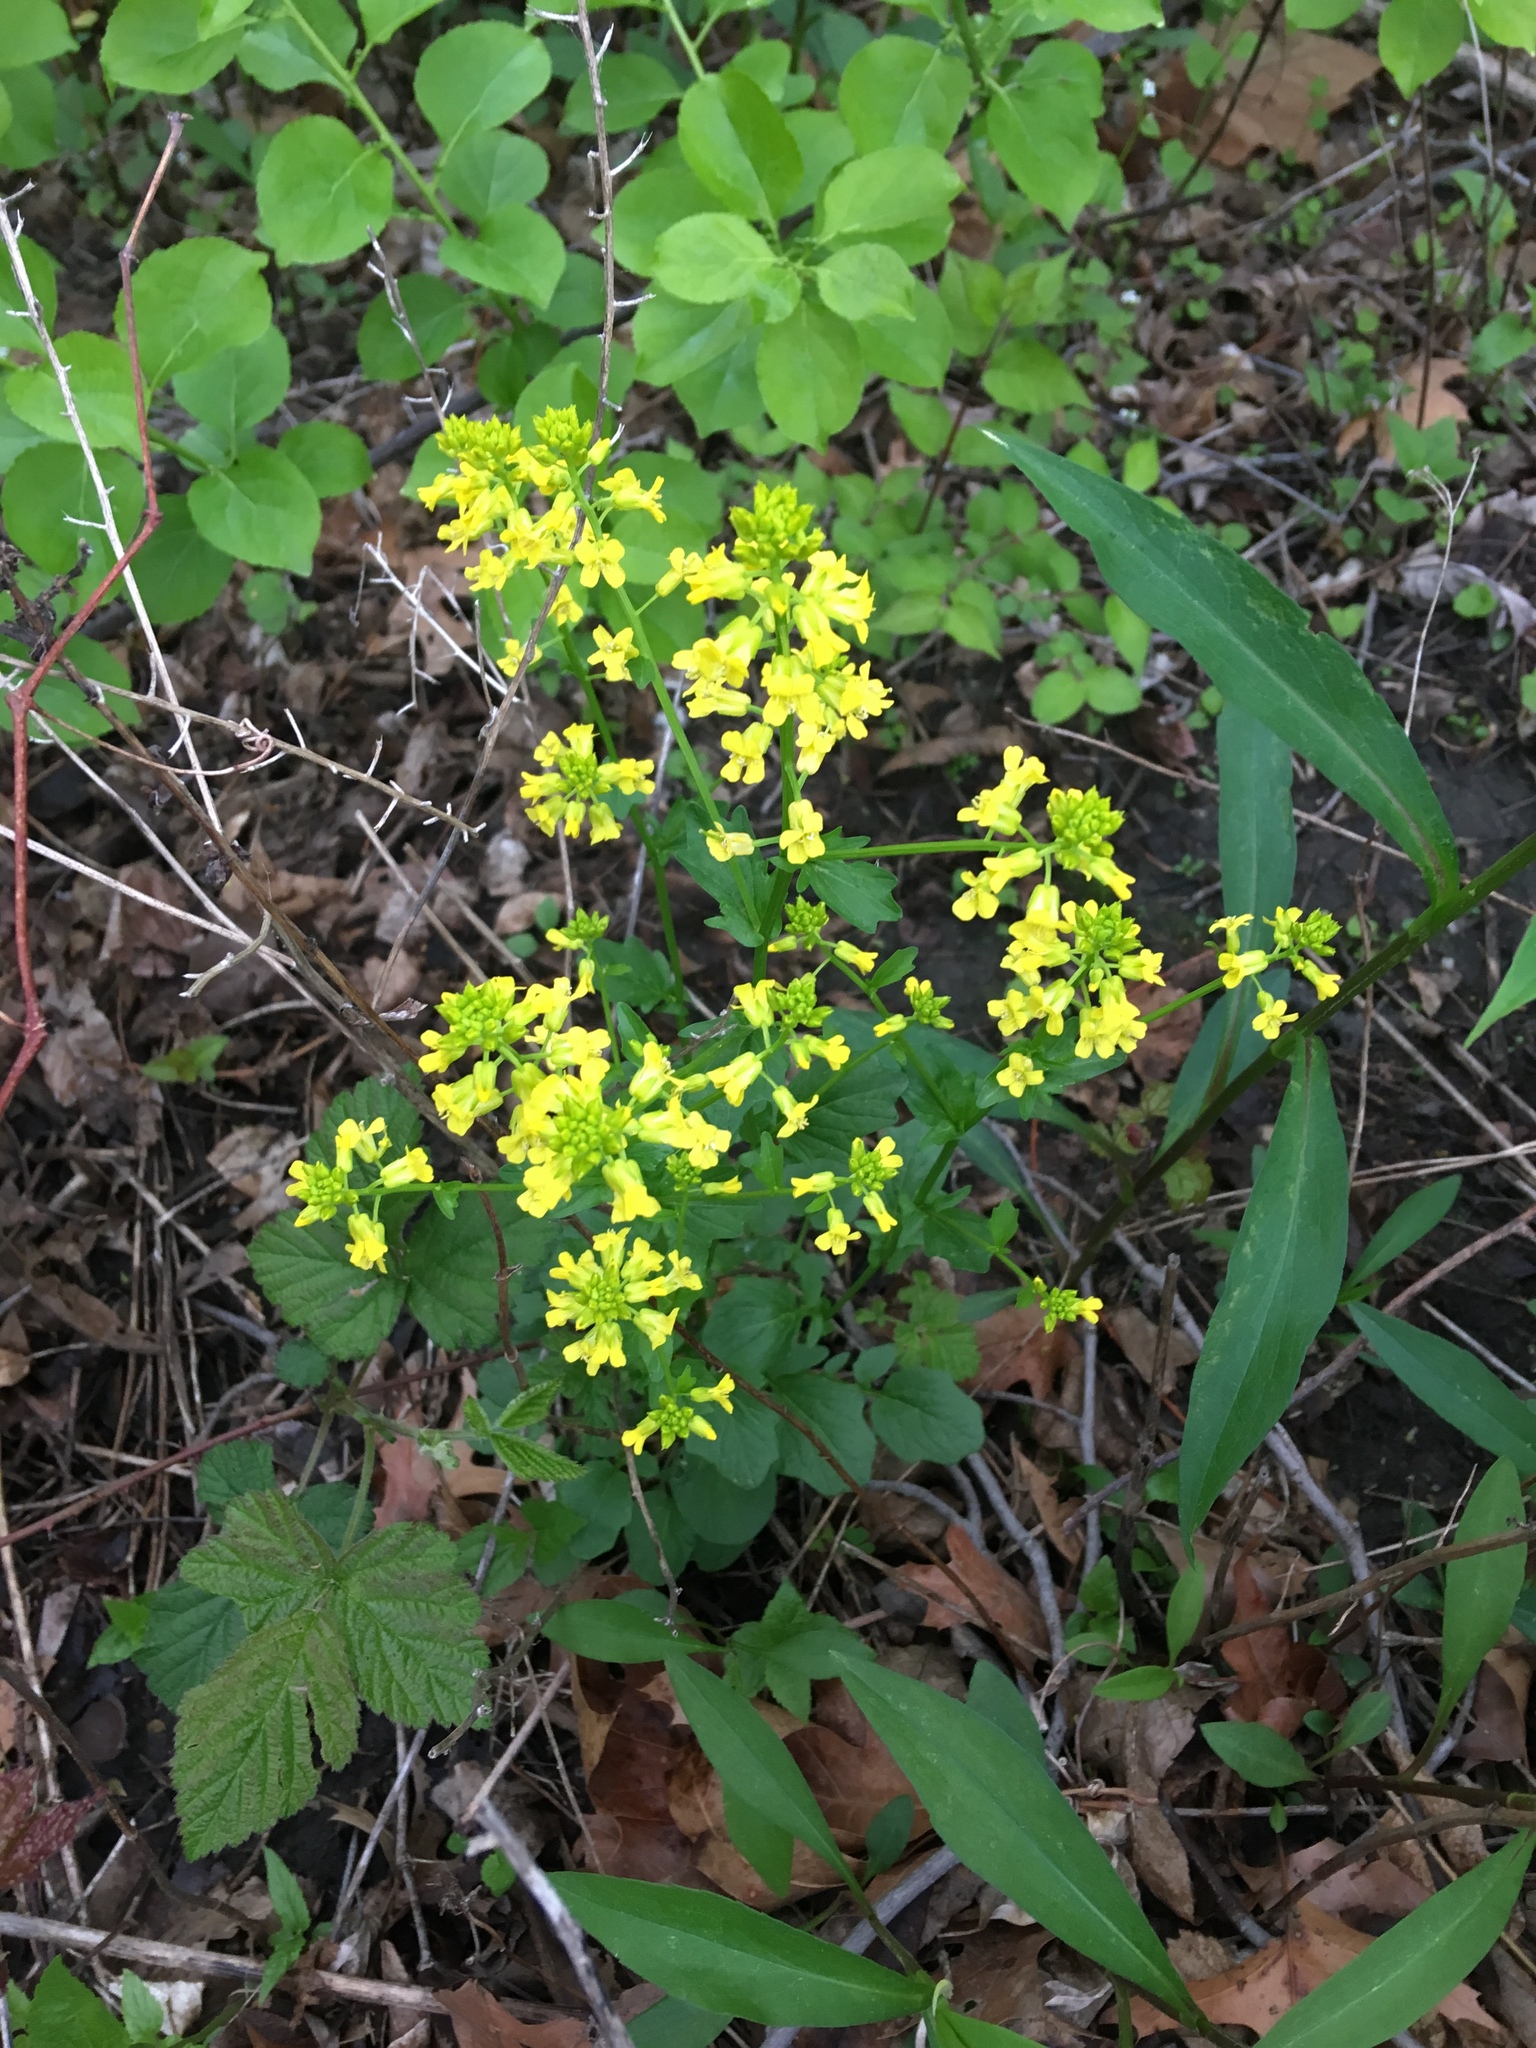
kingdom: Plantae
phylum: Tracheophyta
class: Magnoliopsida
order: Brassicales
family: Brassicaceae
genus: Barbarea
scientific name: Barbarea vulgaris
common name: Cressy-greens
